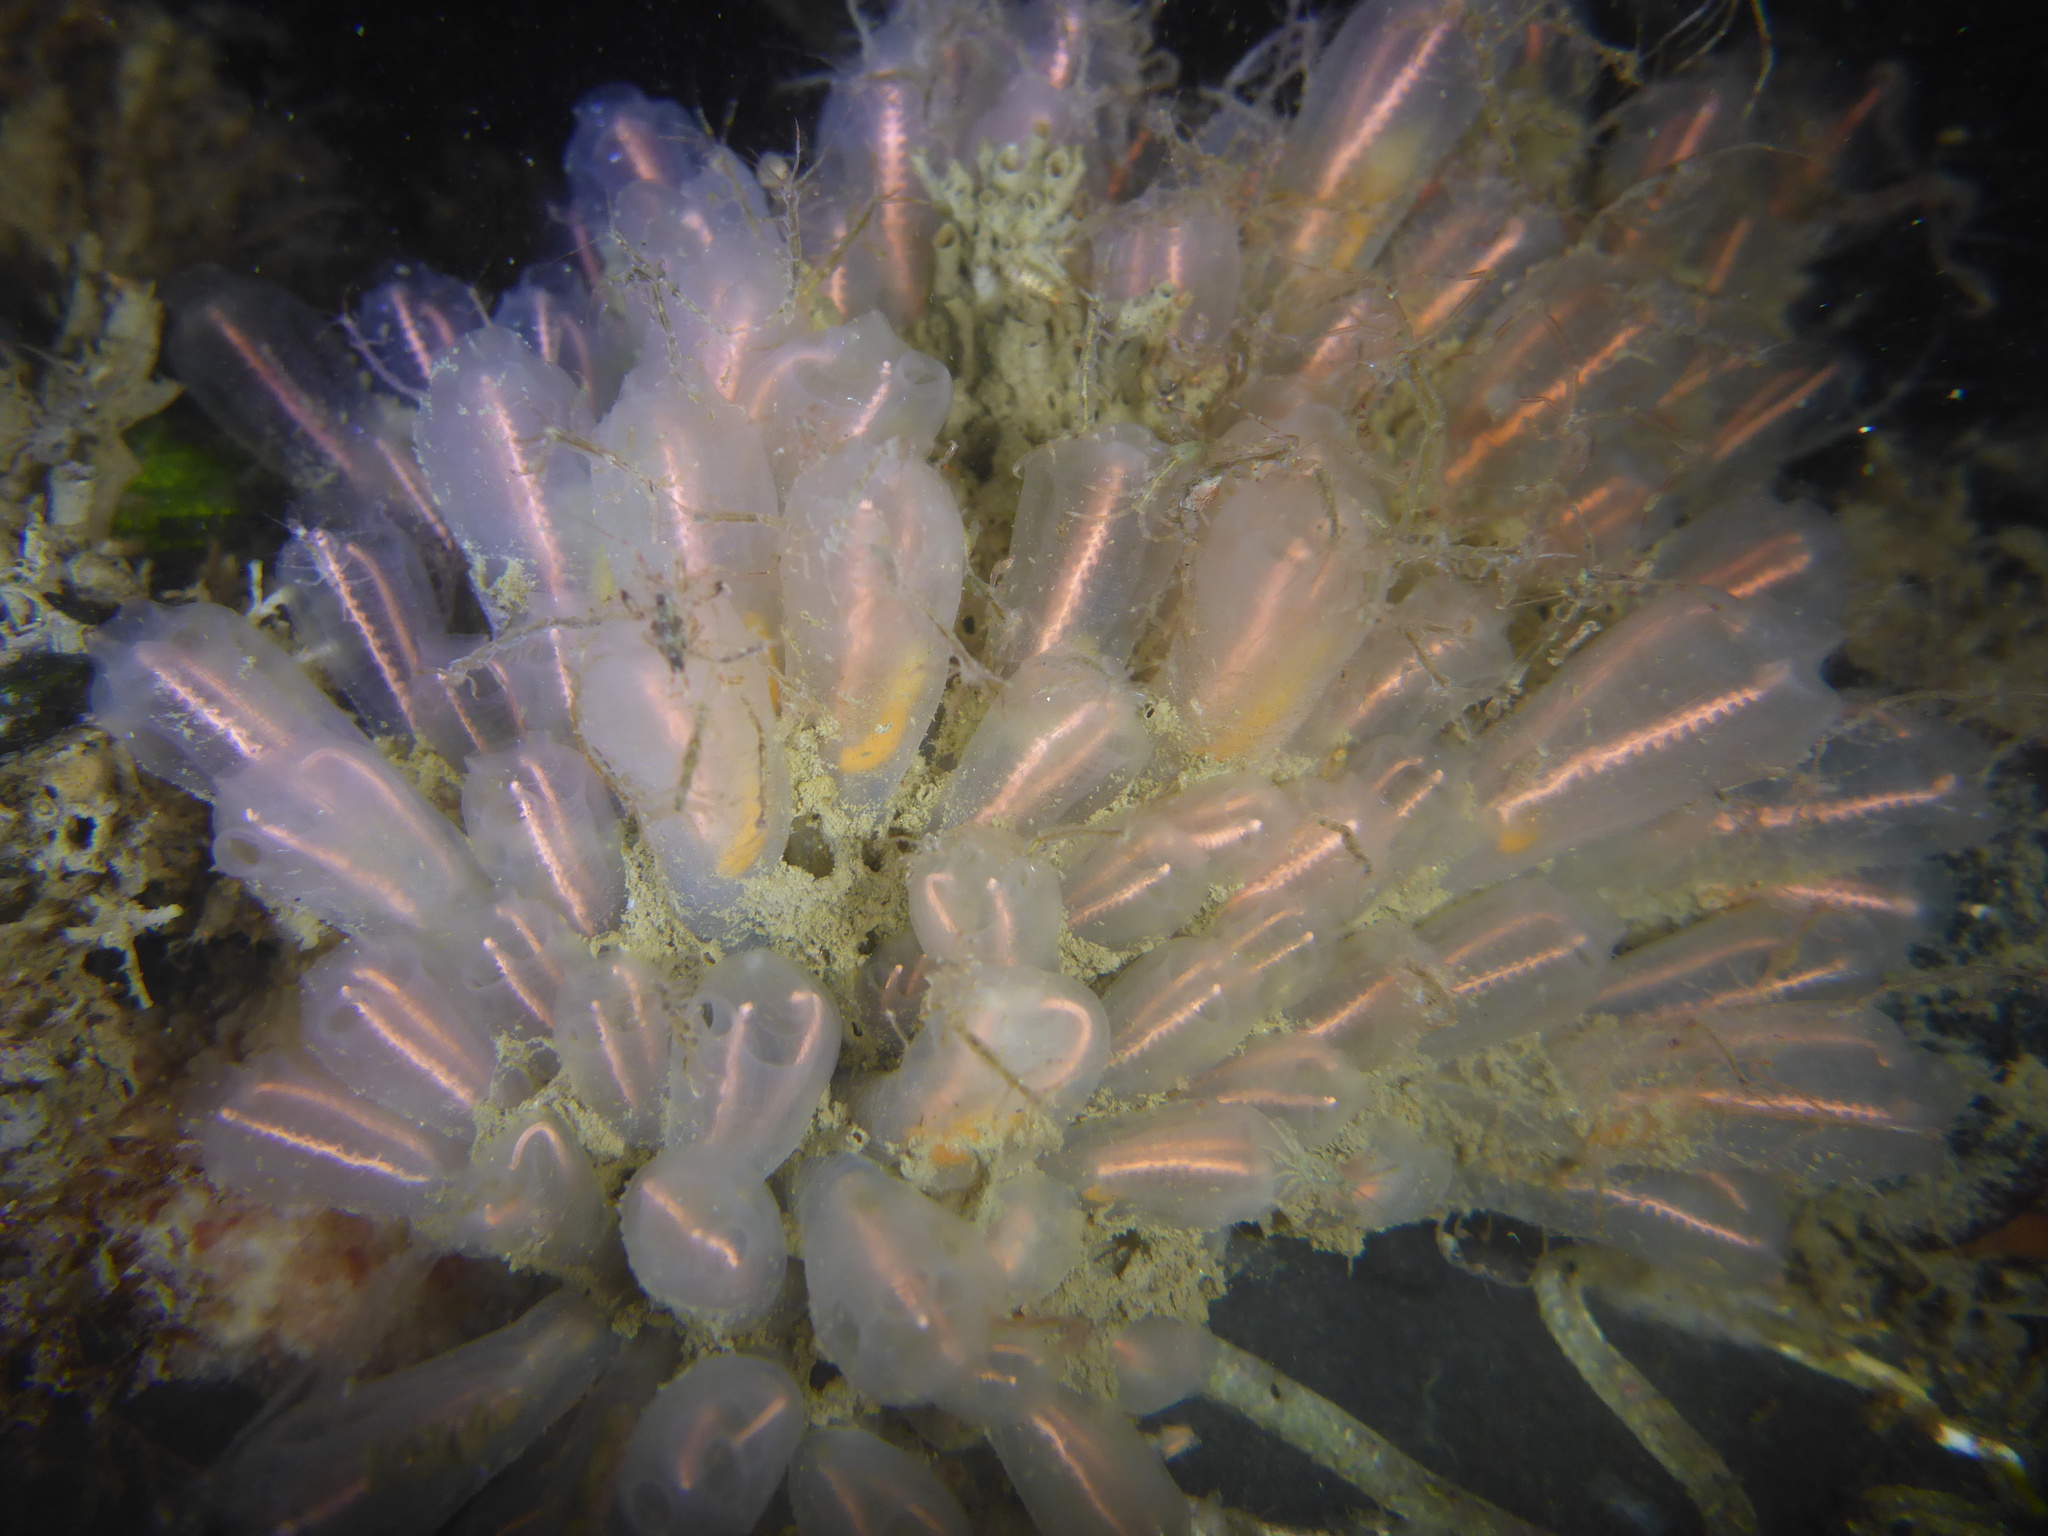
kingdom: Animalia
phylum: Chordata
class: Ascidiacea
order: Aplousobranchia
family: Clavelinidae
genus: Clavelina
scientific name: Clavelina huntsmani
